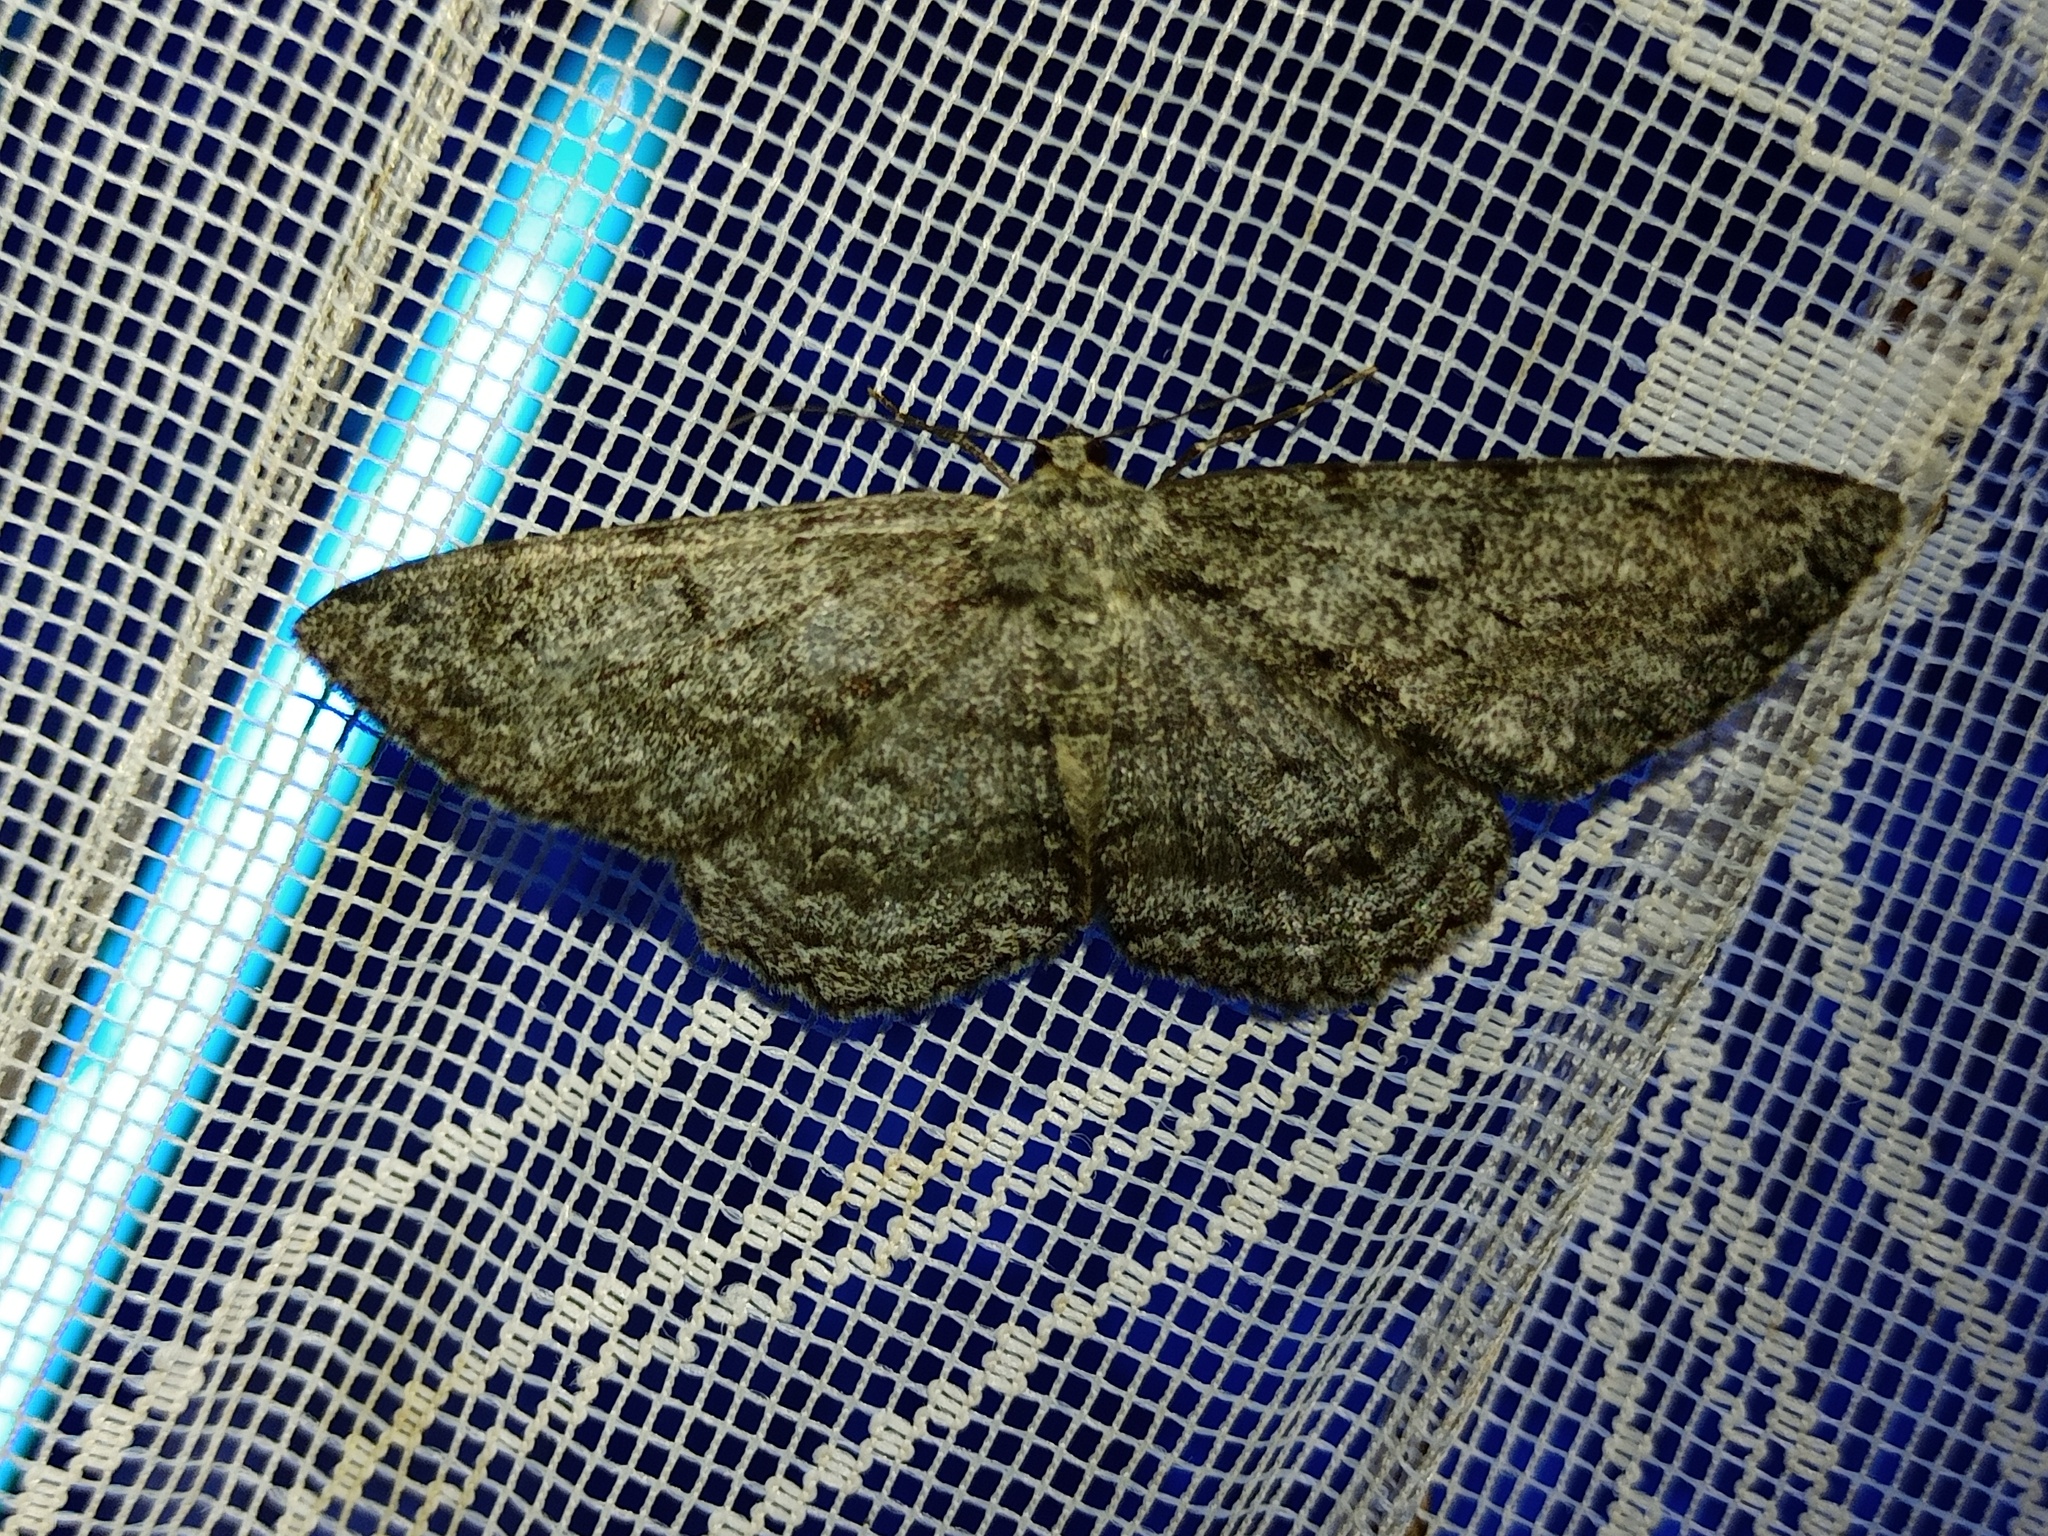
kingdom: Animalia
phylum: Arthropoda
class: Insecta
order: Lepidoptera
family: Geometridae
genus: Hypomecis
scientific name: Hypomecis roboraria
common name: Great oak beauty
